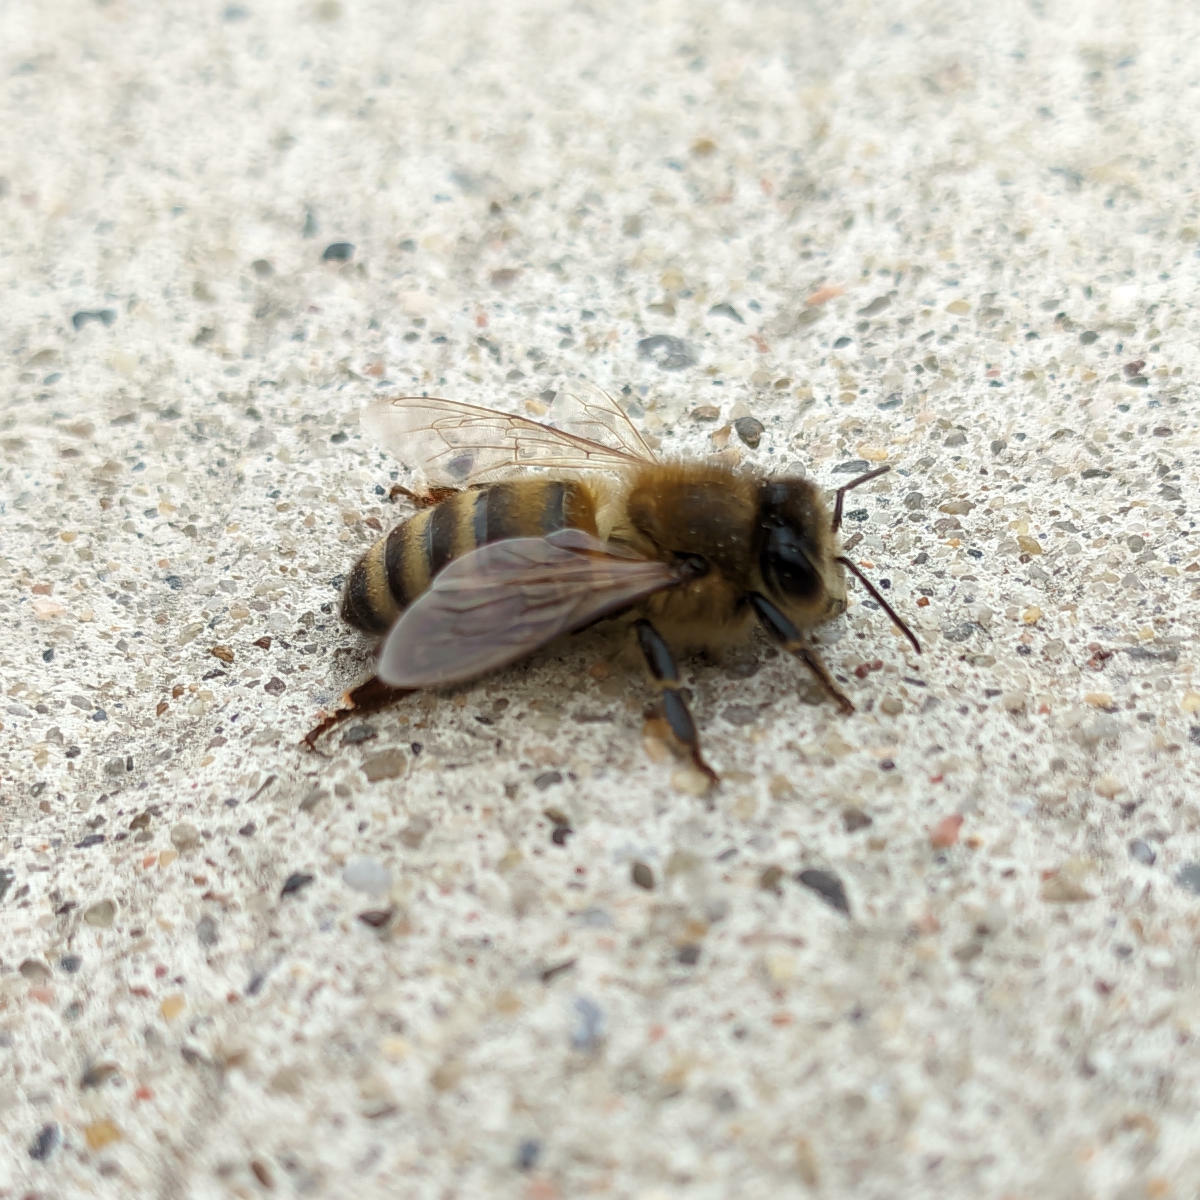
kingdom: Animalia
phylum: Arthropoda
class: Insecta
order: Hymenoptera
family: Apidae
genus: Apis
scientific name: Apis mellifera
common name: Honey bee
